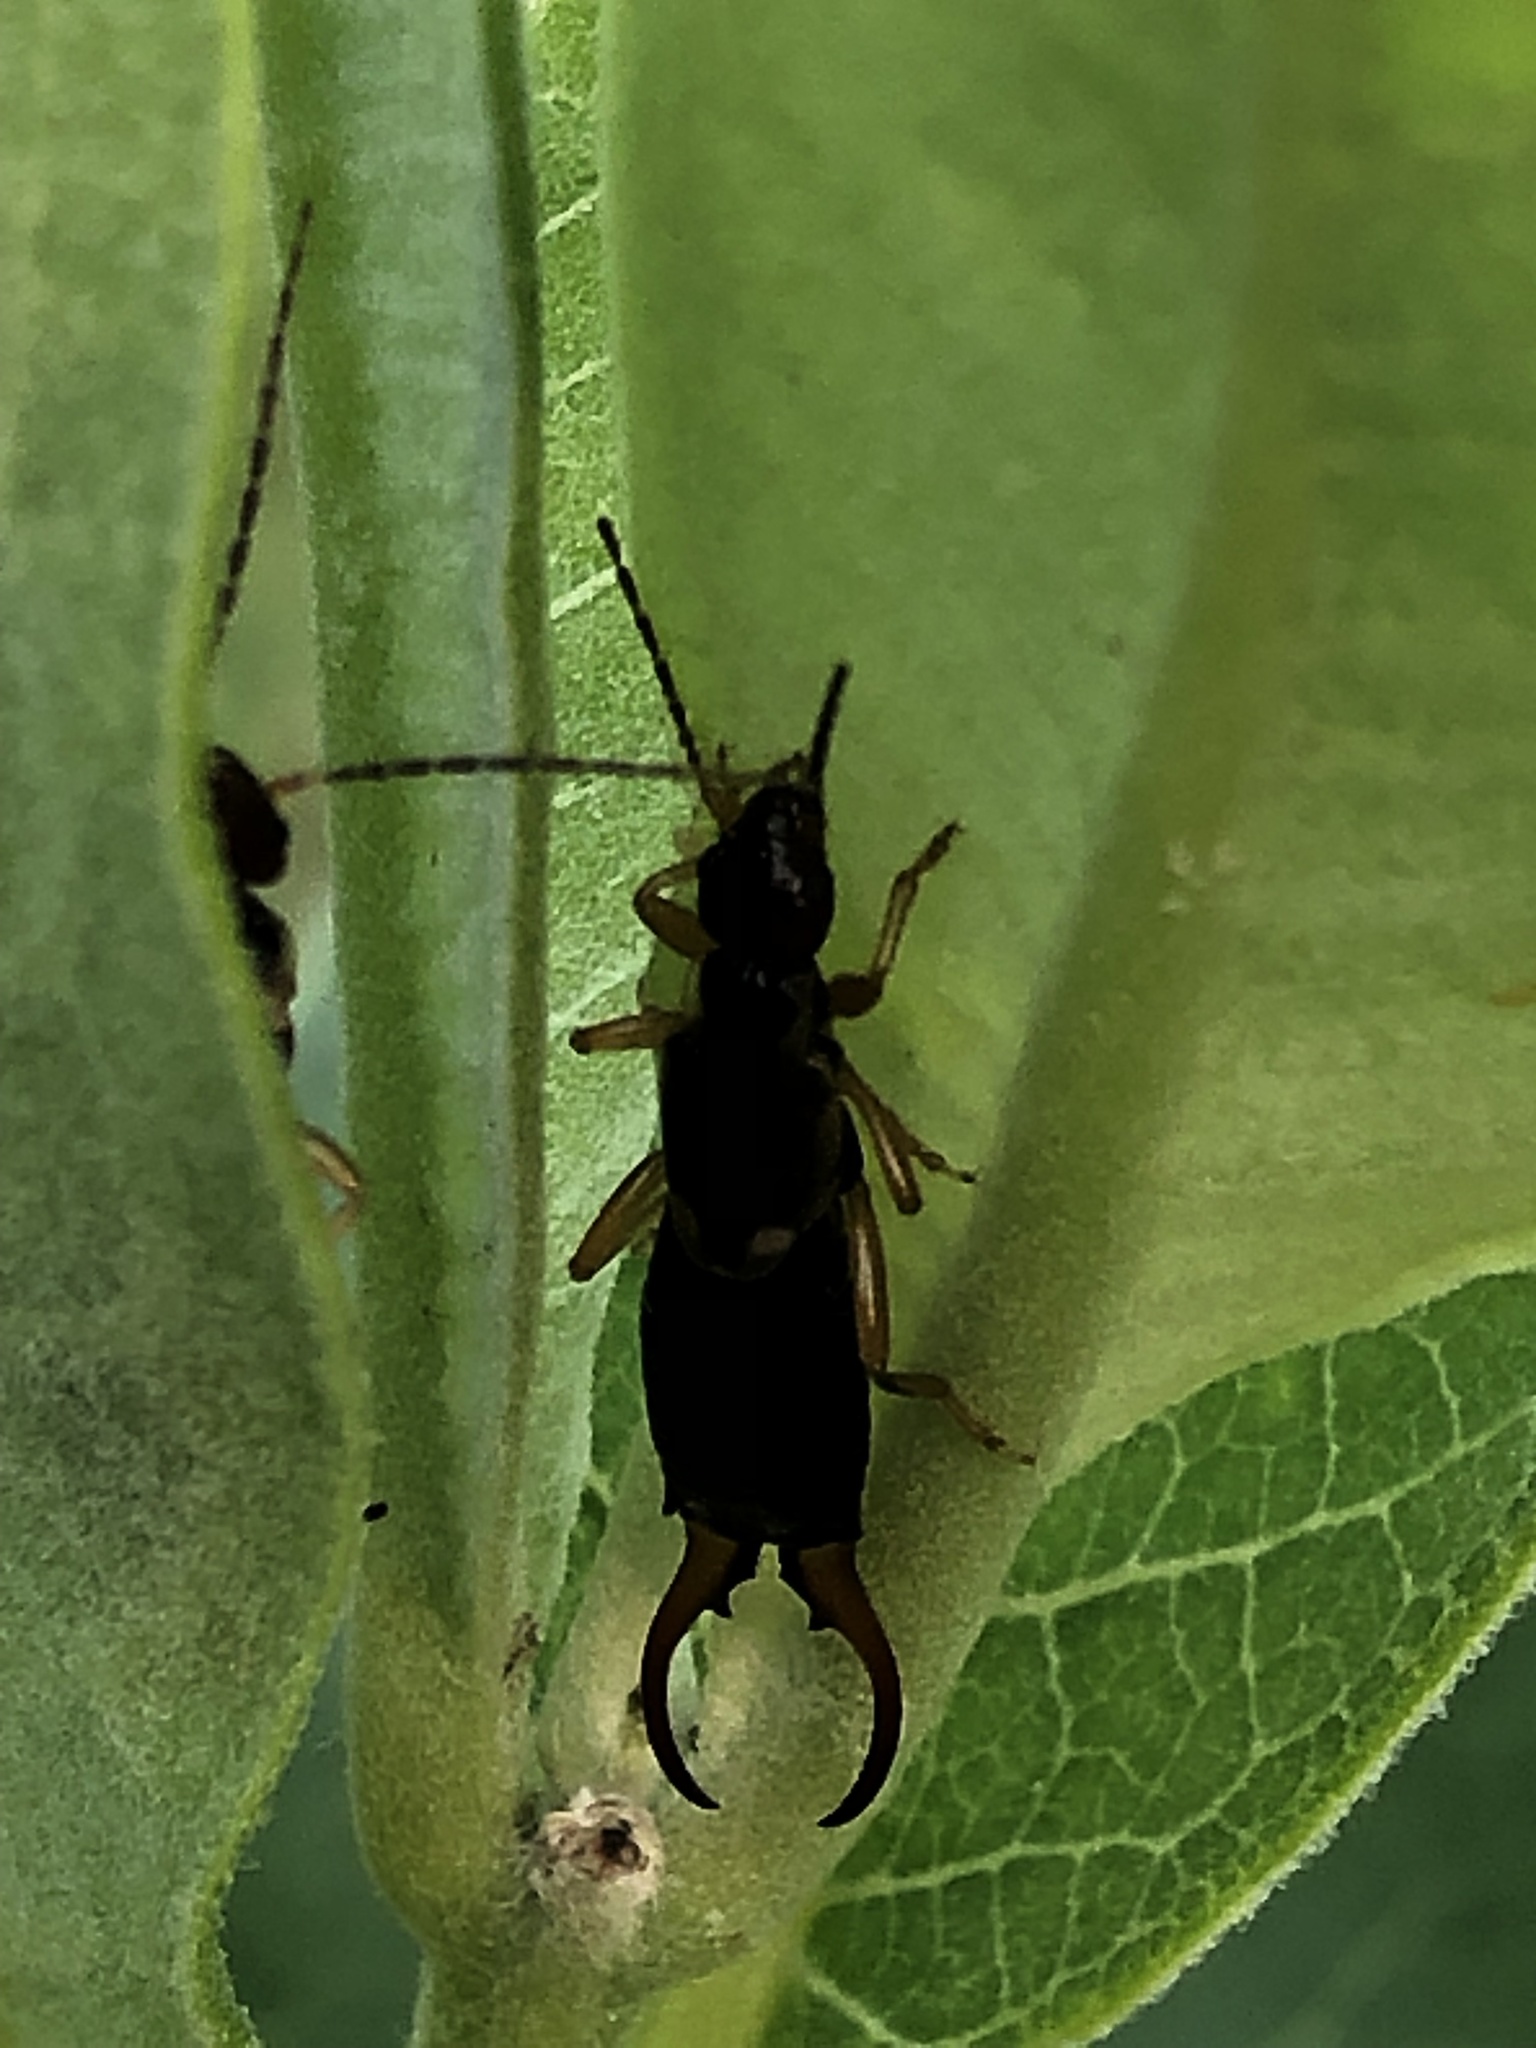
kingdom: Animalia
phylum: Arthropoda
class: Insecta
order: Dermaptera
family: Forficulidae
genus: Forficula
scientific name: Forficula
